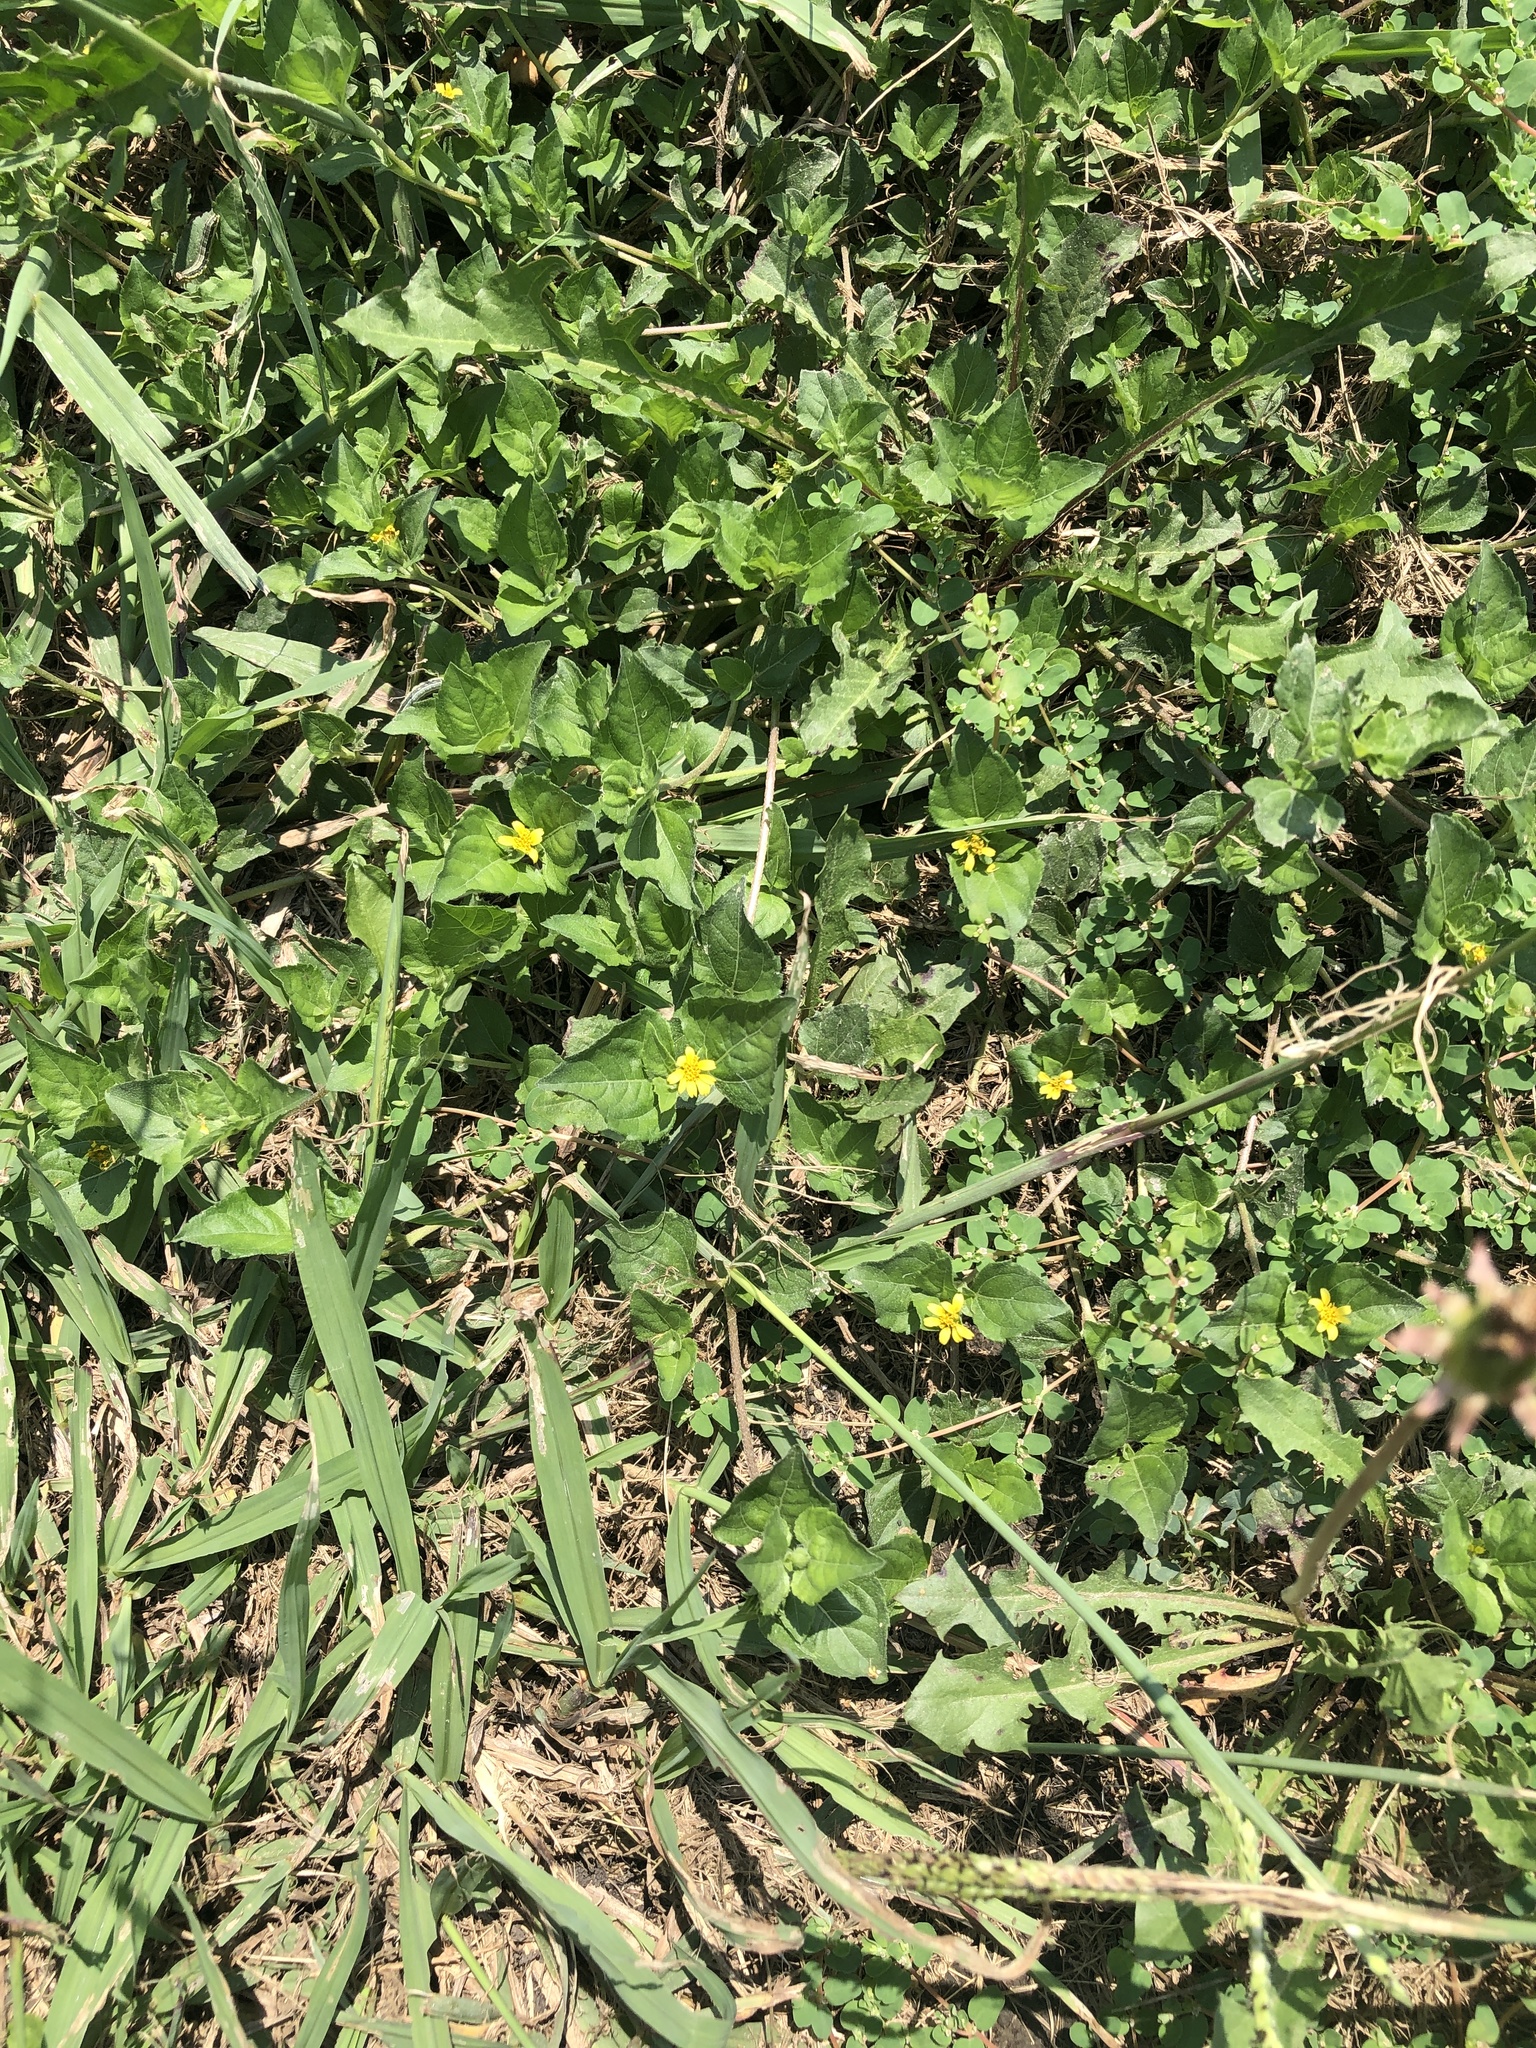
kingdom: Plantae
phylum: Tracheophyta
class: Magnoliopsida
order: Asterales
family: Asteraceae
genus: Calyptocarpus
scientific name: Calyptocarpus vialis
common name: Straggler daisy
